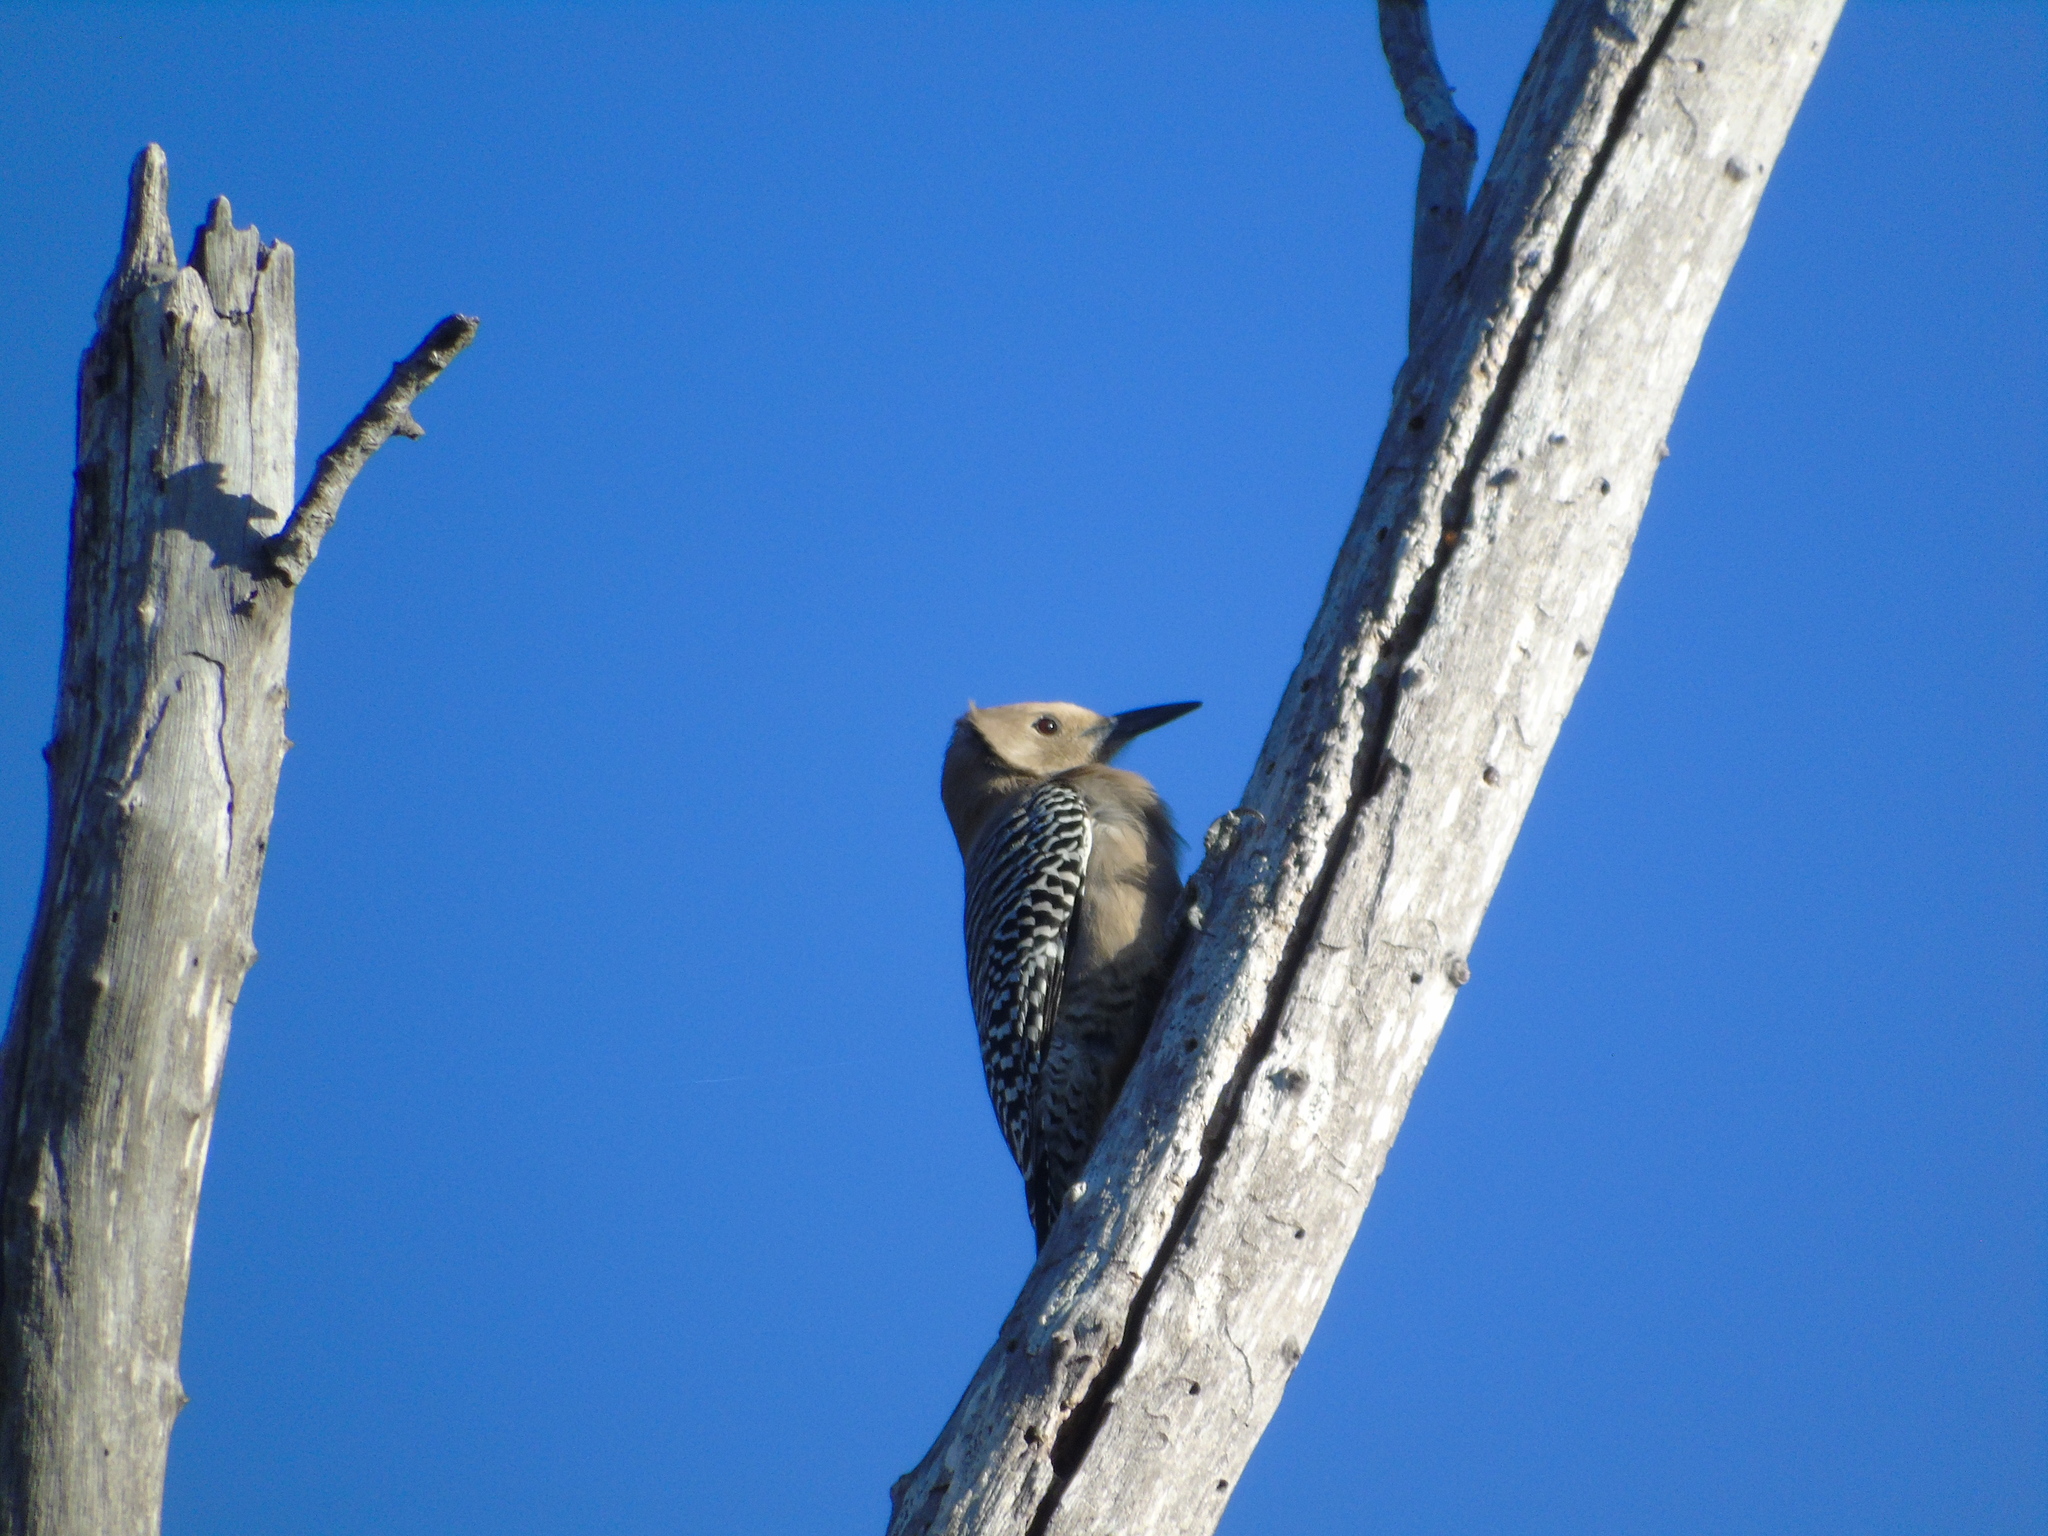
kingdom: Animalia
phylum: Chordata
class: Aves
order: Piciformes
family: Picidae
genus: Melanerpes
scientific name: Melanerpes uropygialis
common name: Gila woodpecker
